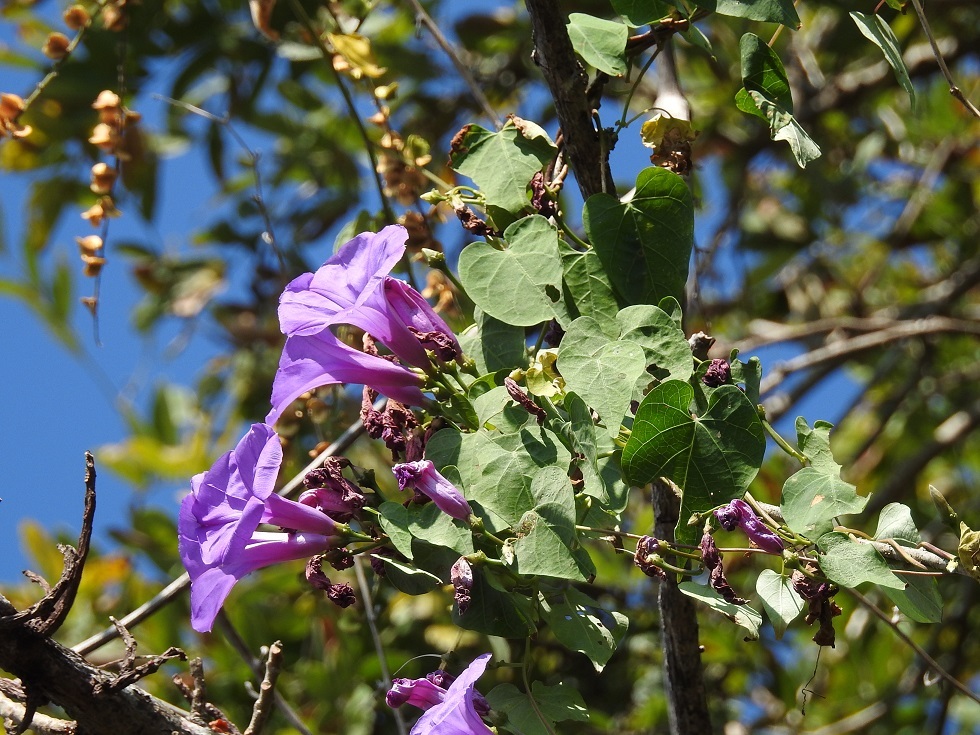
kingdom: Plantae
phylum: Tracheophyta
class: Magnoliopsida
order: Solanales
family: Convolvulaceae
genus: Ipomoea
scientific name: Ipomoea pedicellaris
